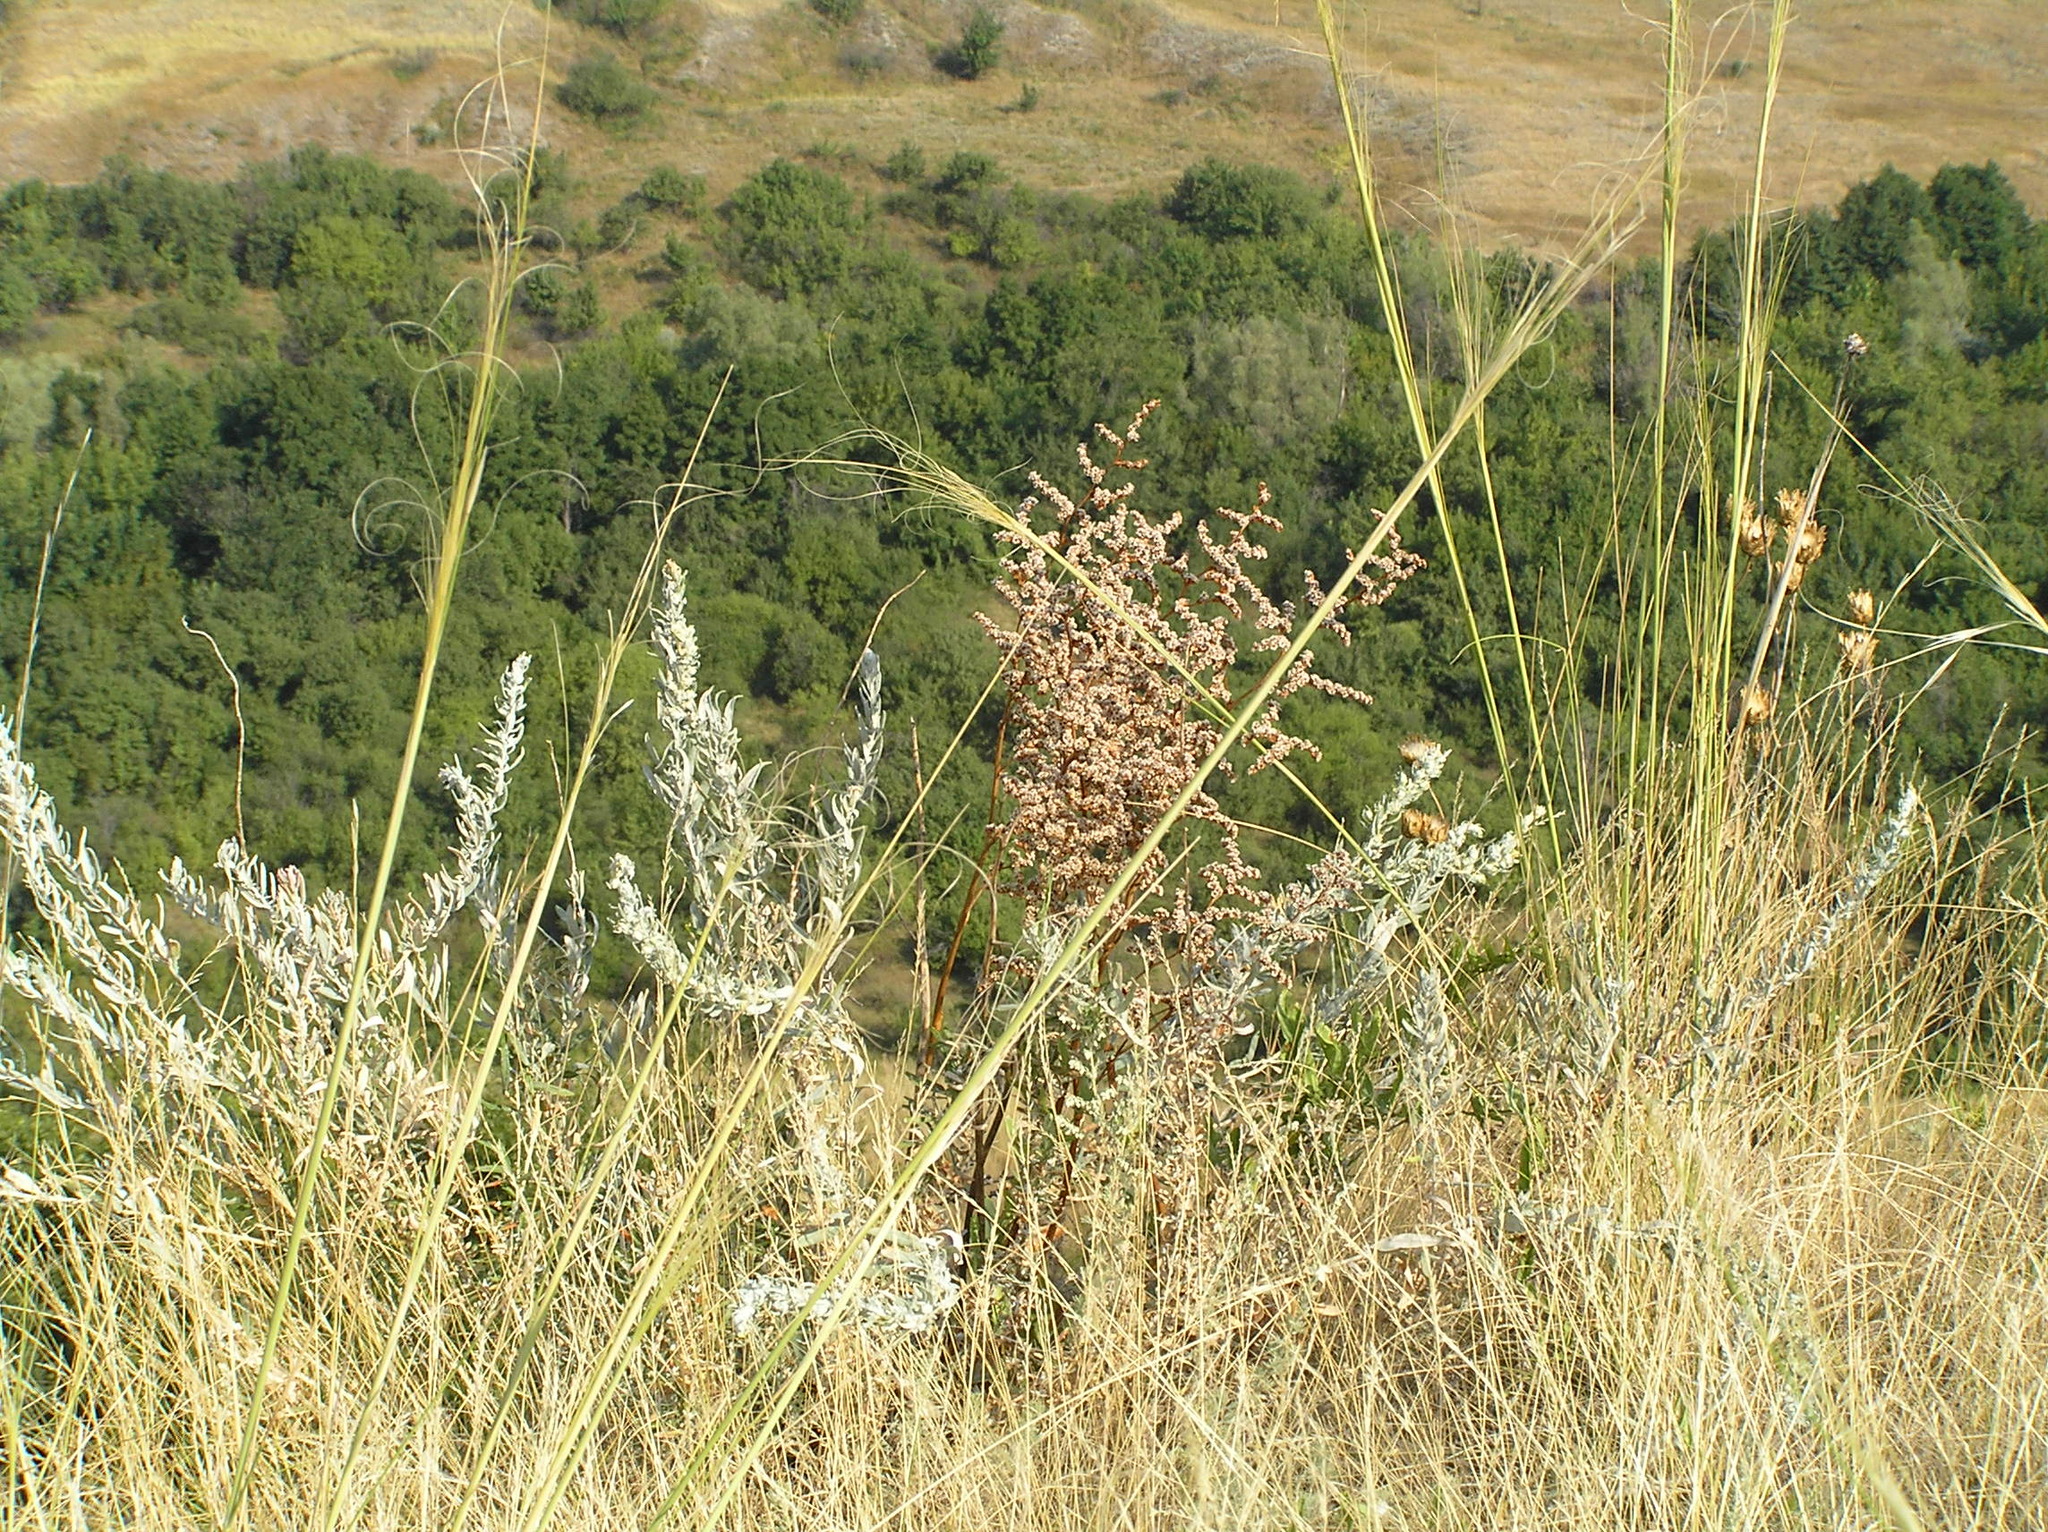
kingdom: Plantae
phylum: Tracheophyta
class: Liliopsida
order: Poales
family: Poaceae
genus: Stipa
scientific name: Stipa capillata
